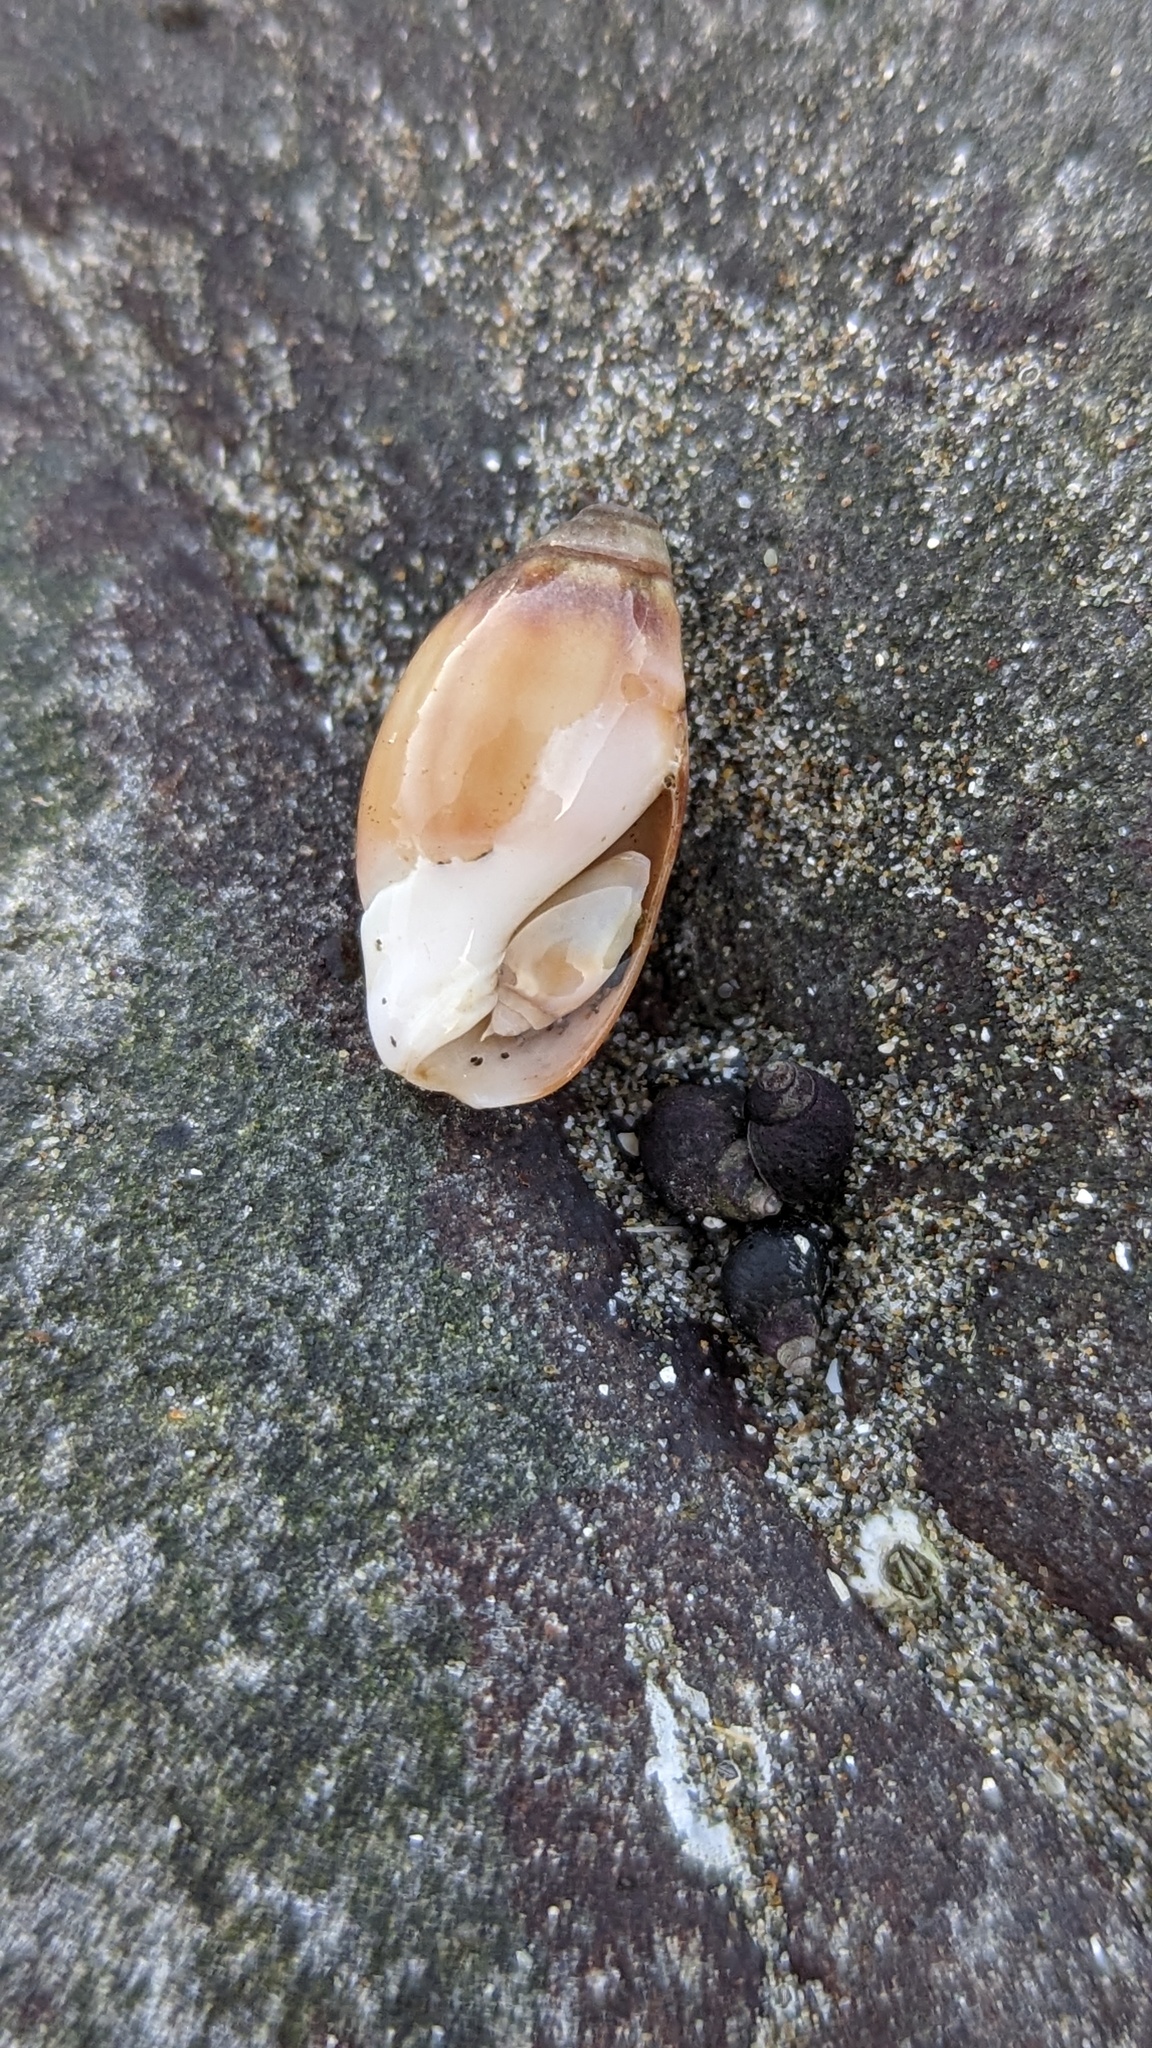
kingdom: Animalia
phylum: Mollusca
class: Gastropoda
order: Neogastropoda
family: Olividae
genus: Callianax
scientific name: Callianax biplicata
